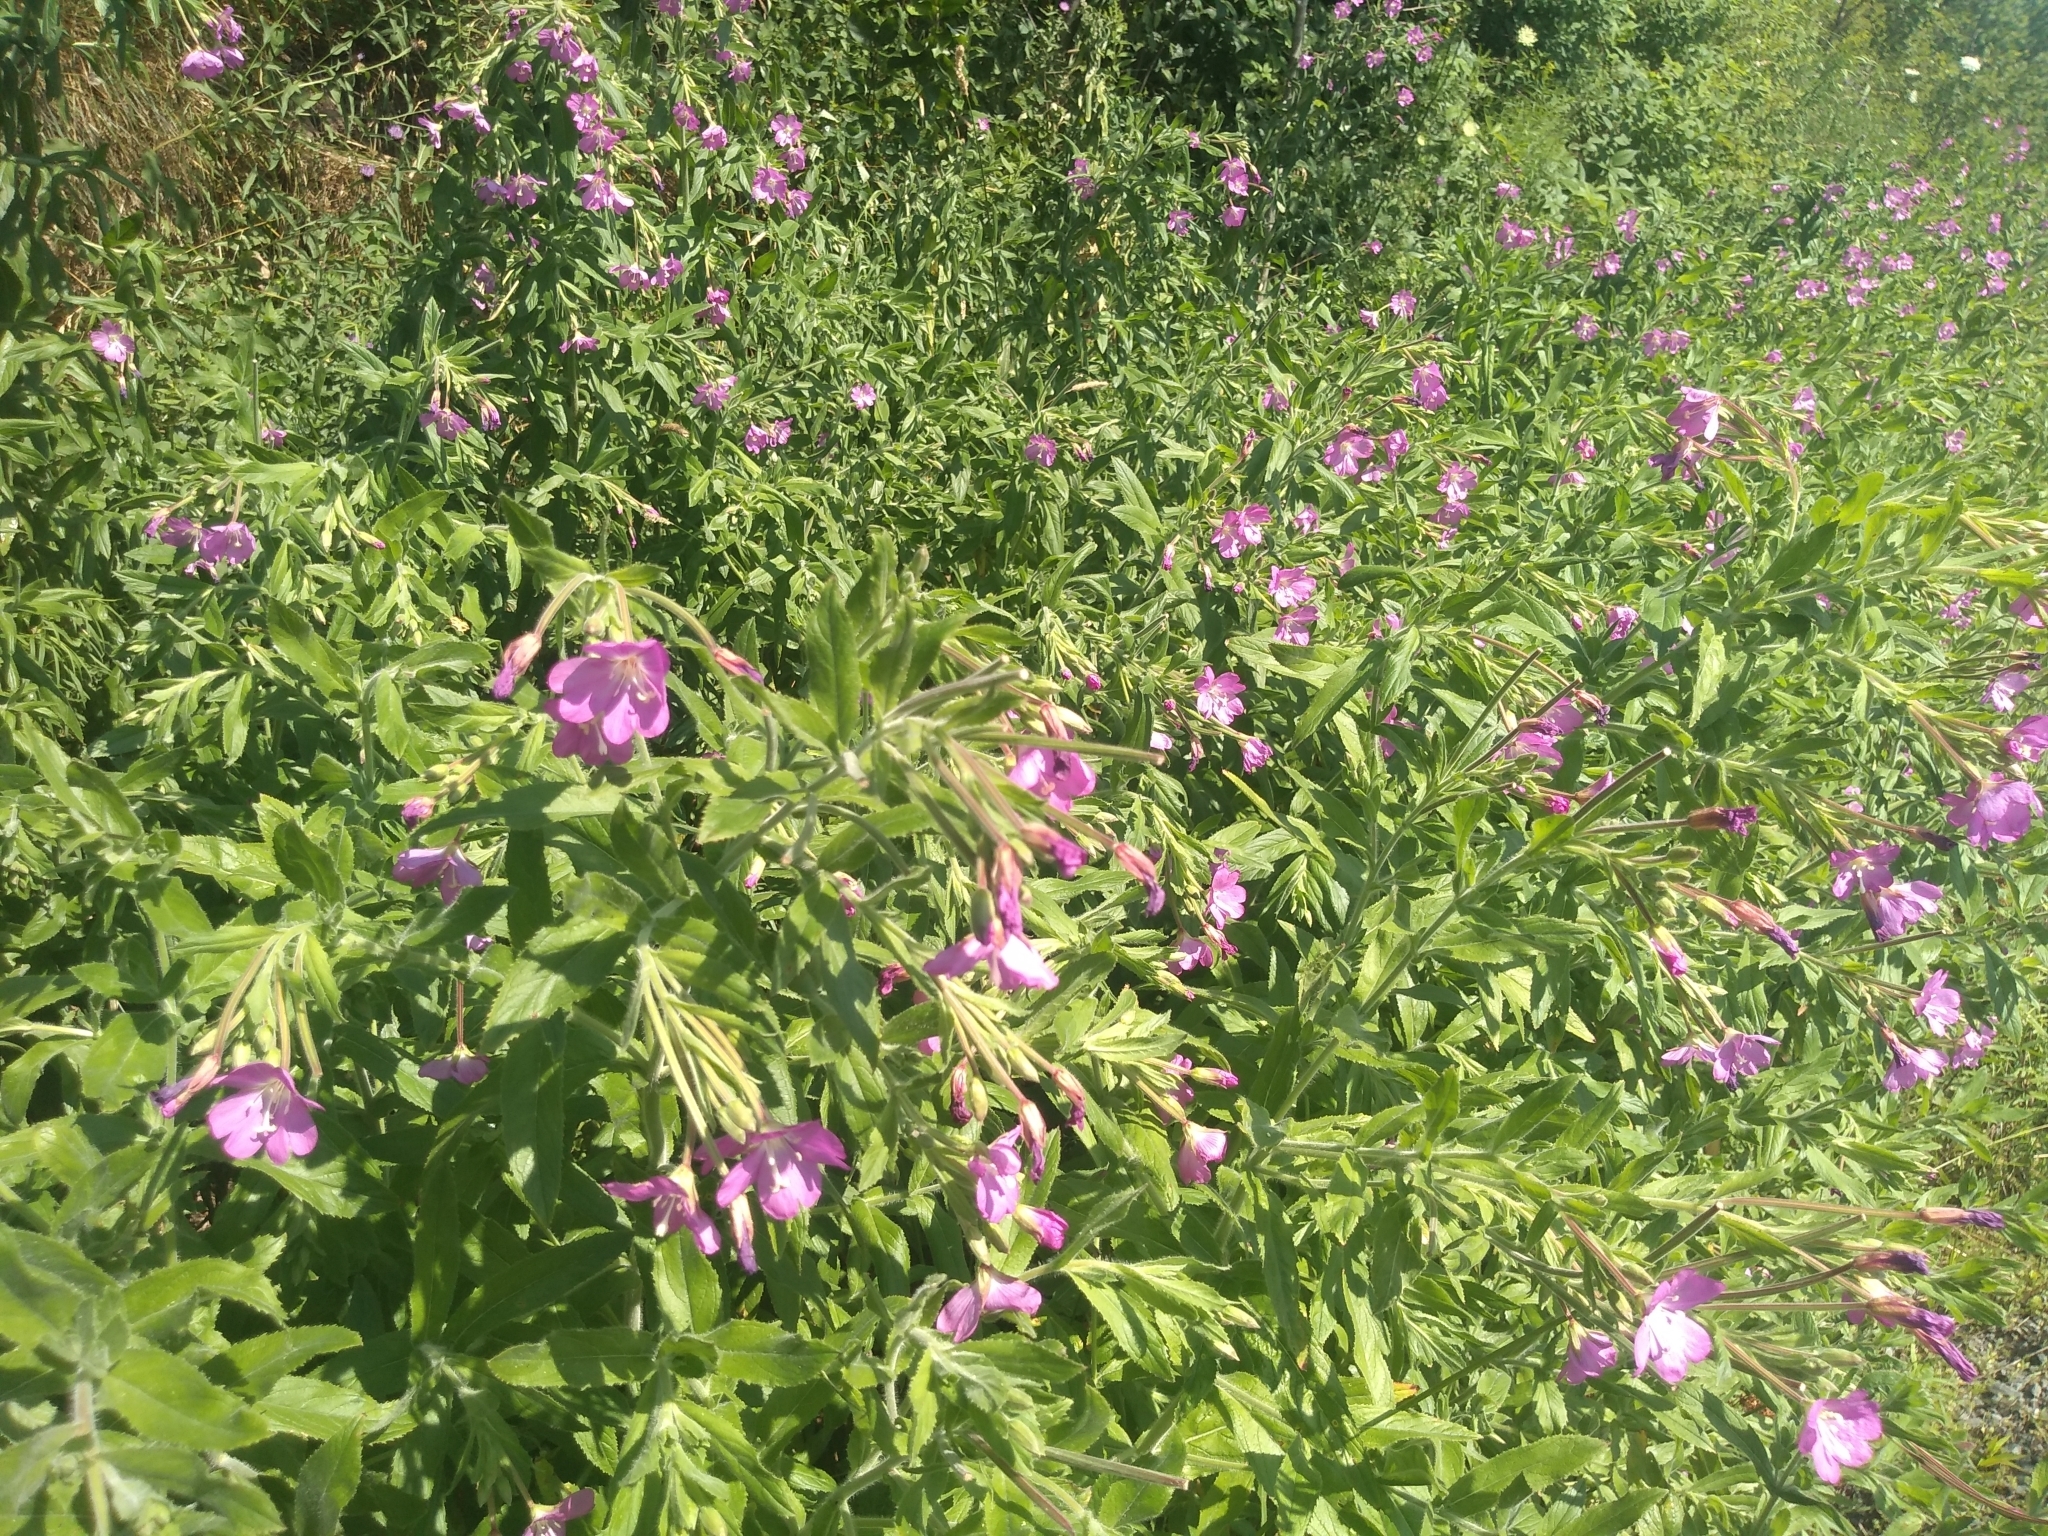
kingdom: Plantae
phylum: Tracheophyta
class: Magnoliopsida
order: Myrtales
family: Onagraceae
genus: Epilobium
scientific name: Epilobium hirsutum
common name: Great willowherb
